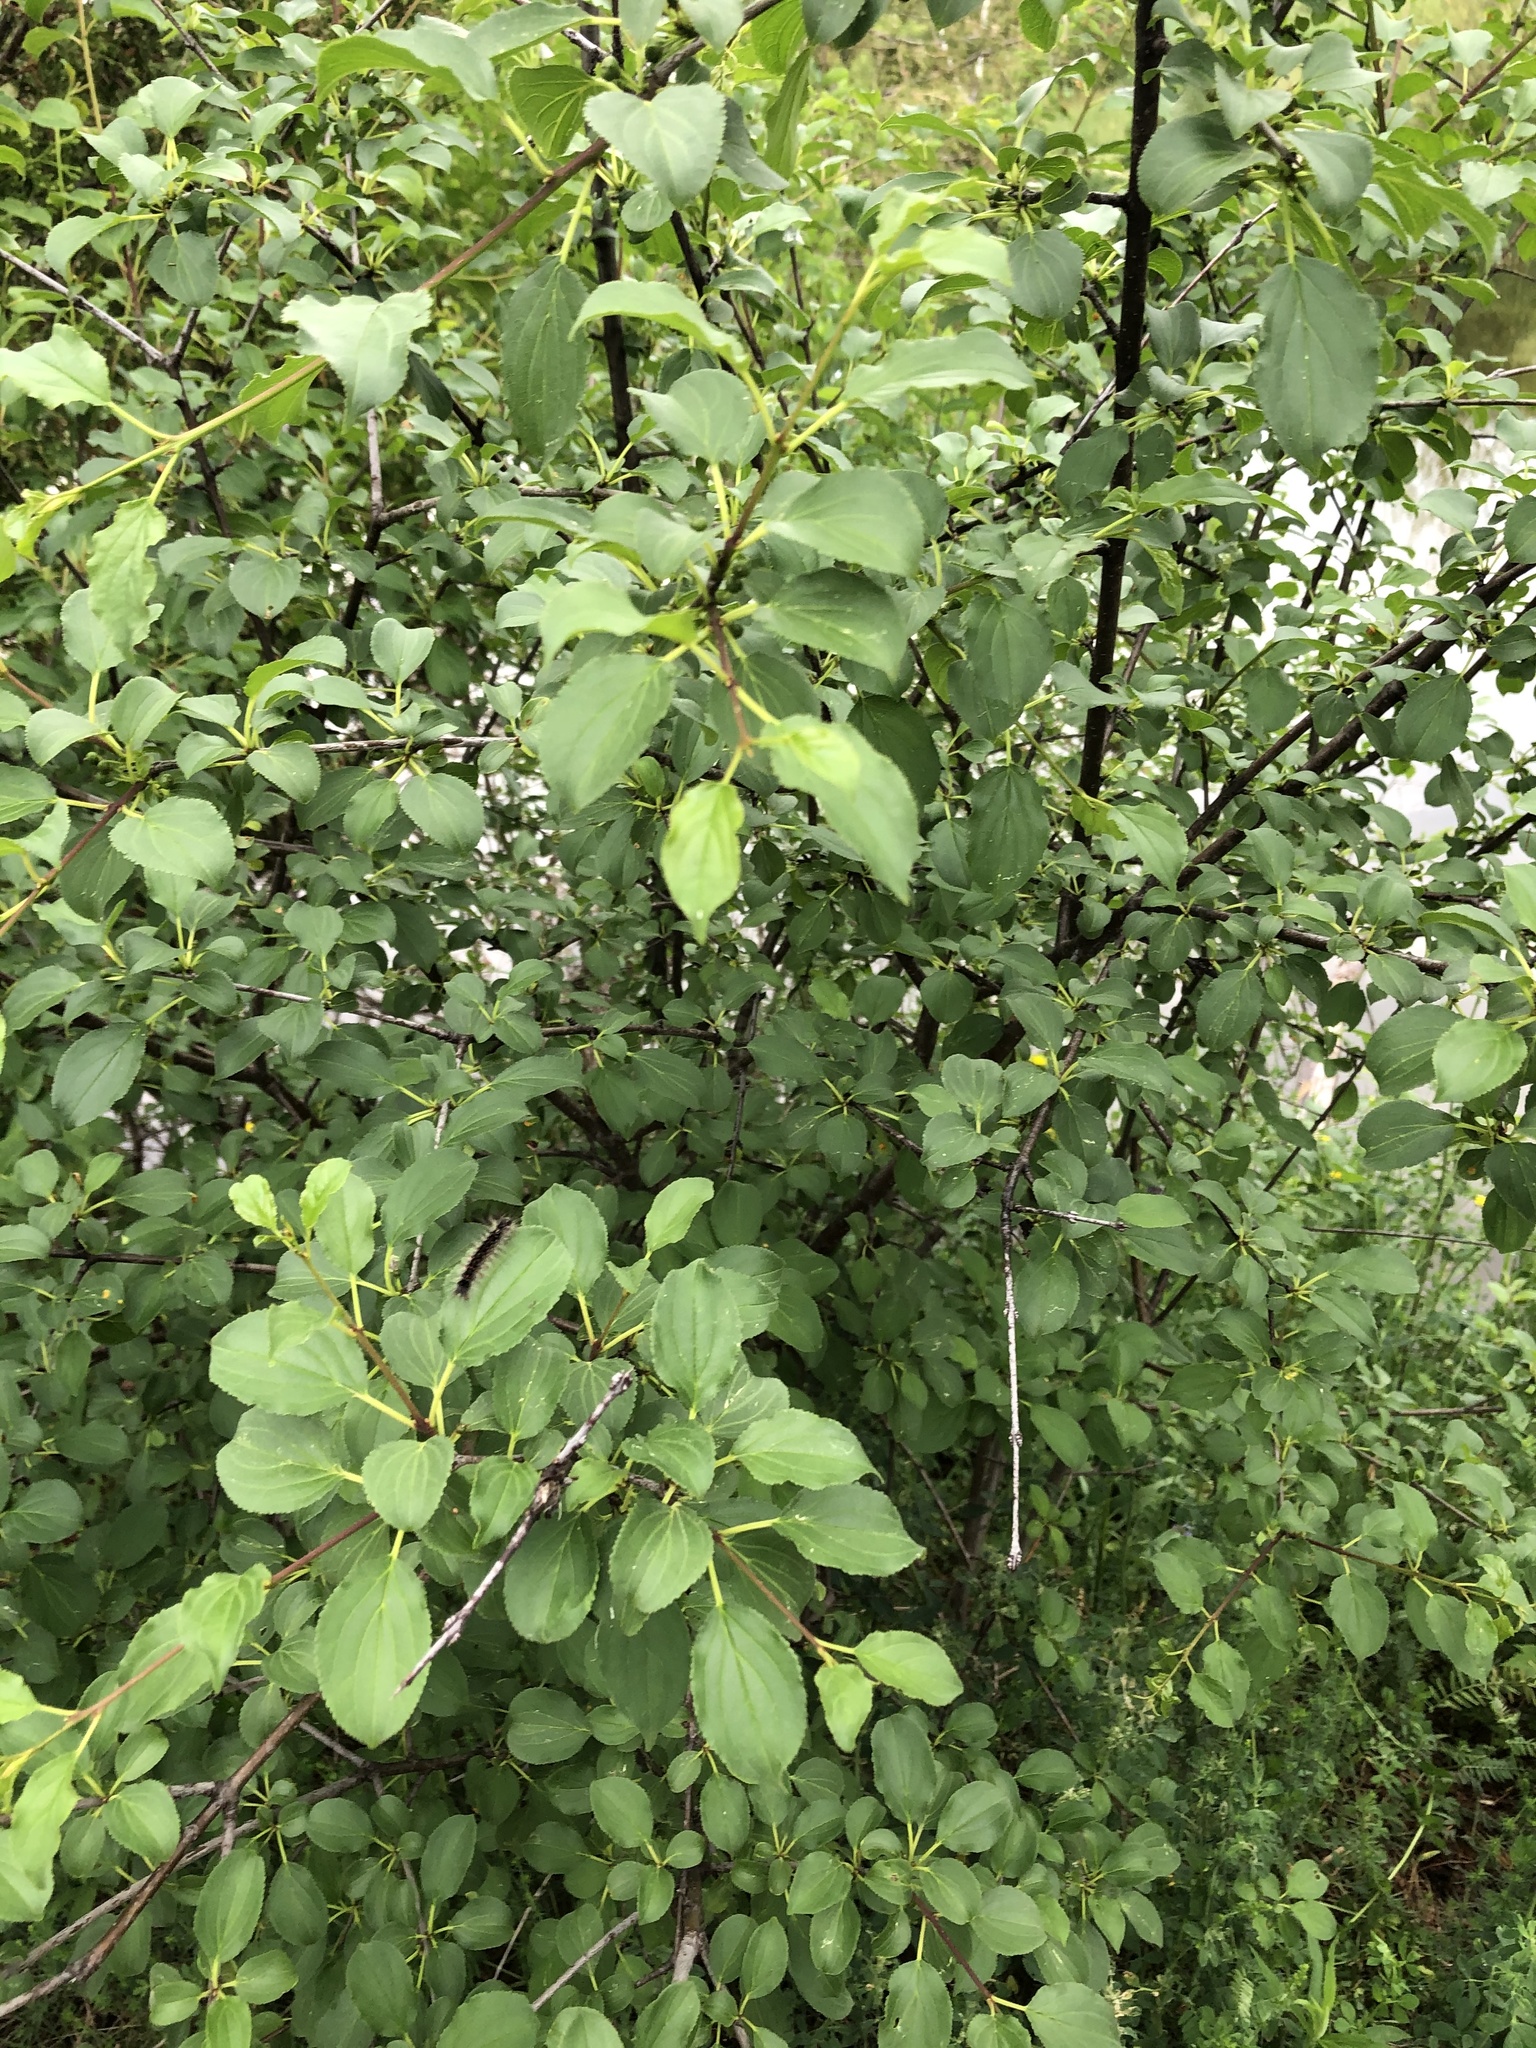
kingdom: Plantae
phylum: Tracheophyta
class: Magnoliopsida
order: Rosales
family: Rhamnaceae
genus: Rhamnus
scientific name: Rhamnus cathartica
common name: Common buckthorn
